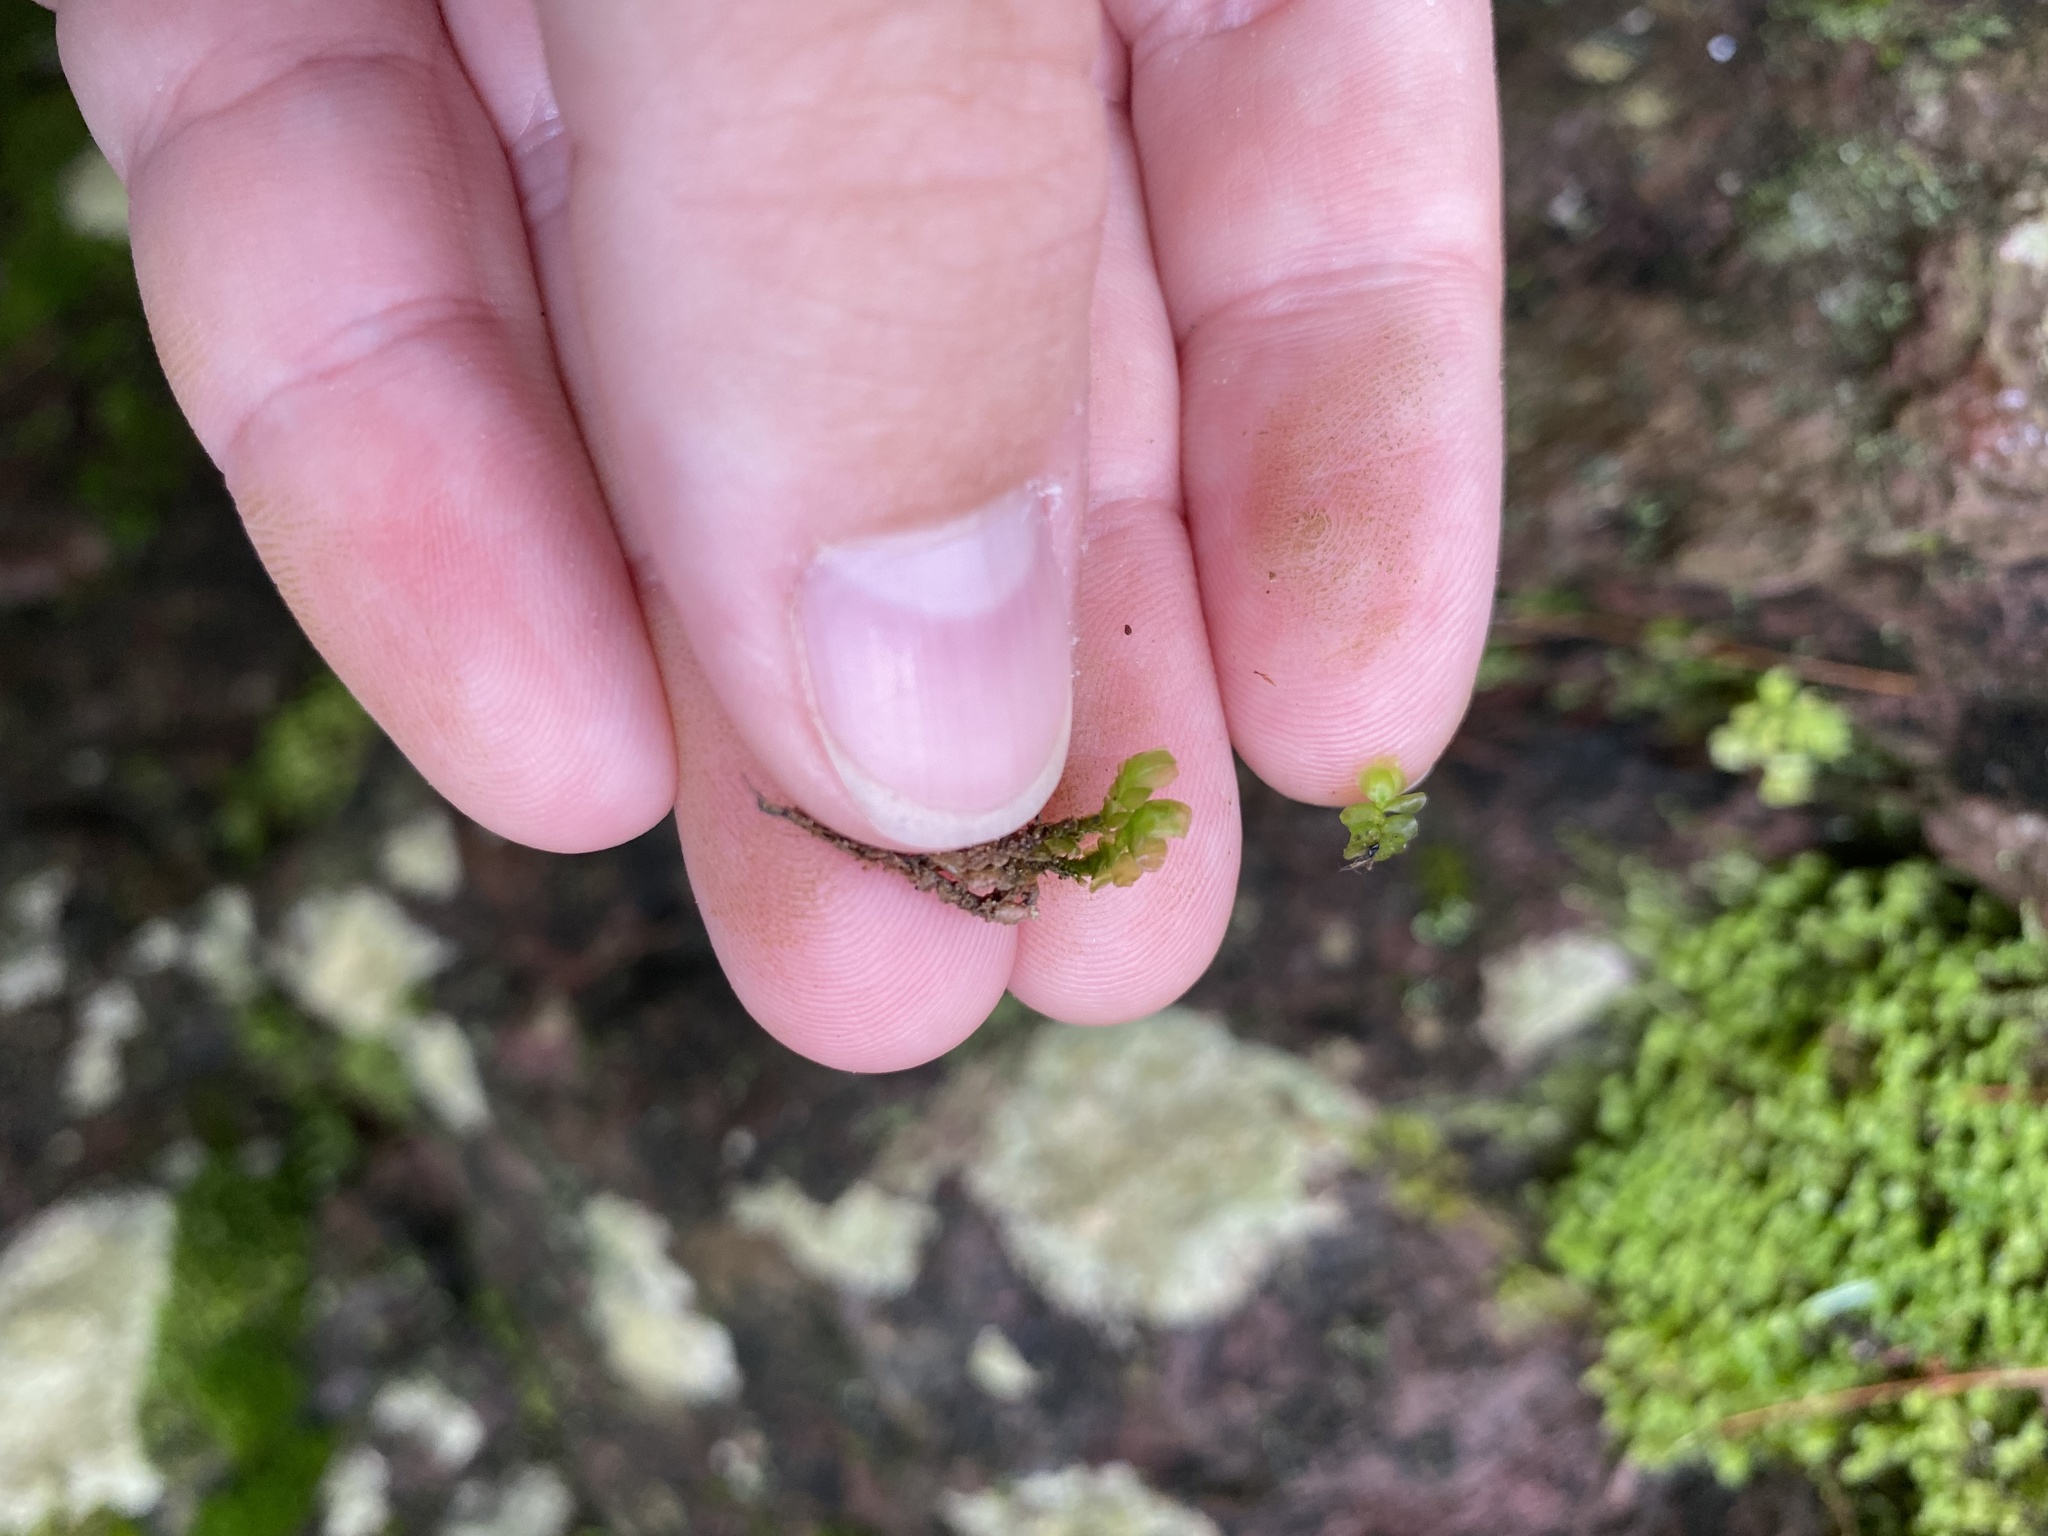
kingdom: Plantae
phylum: Marchantiophyta
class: Jungermanniopsida
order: Jungermanniales
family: Scapaniaceae
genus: Scapania
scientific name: Scapania nemorea
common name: Grove earwort
